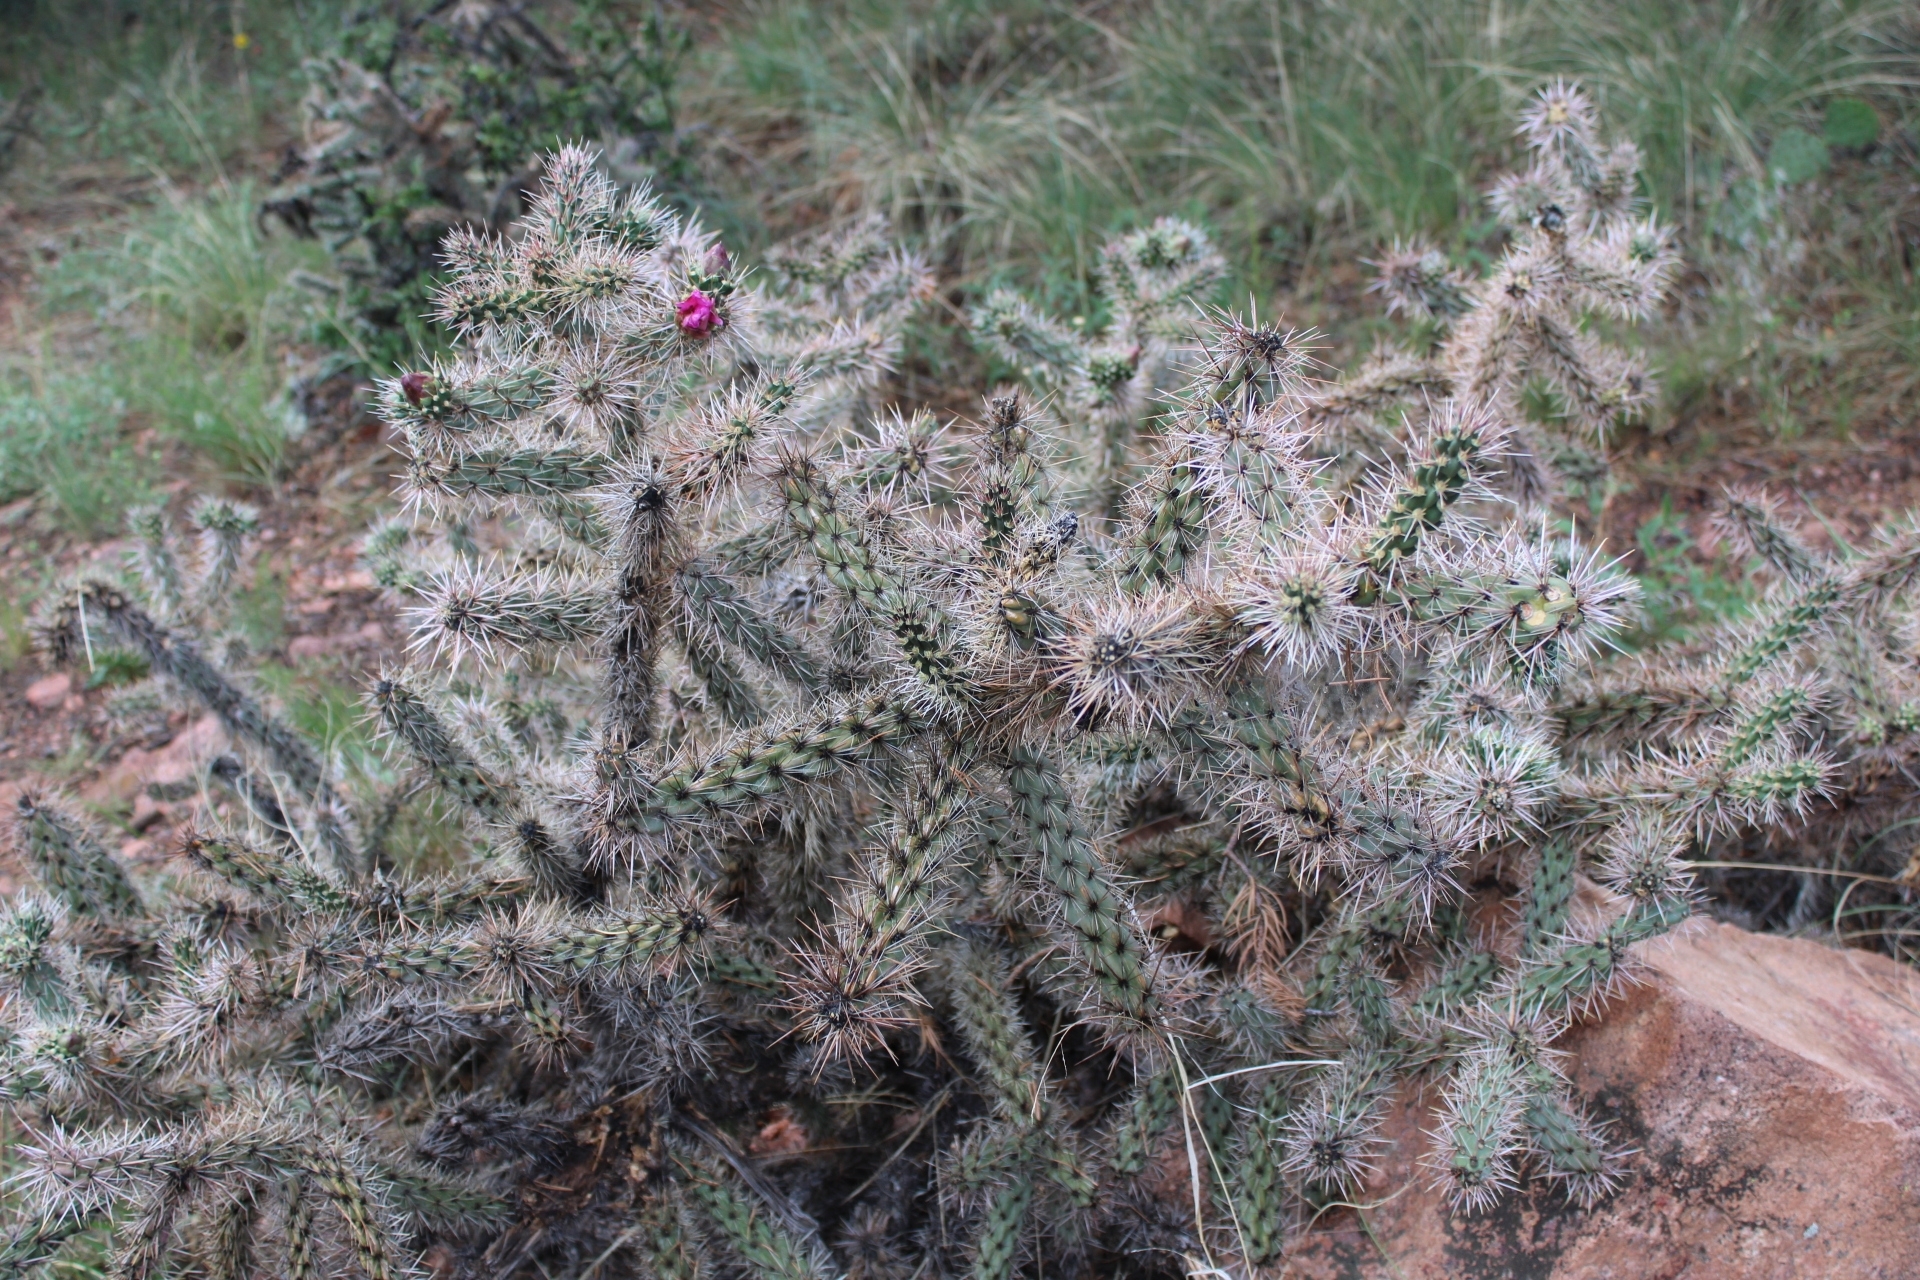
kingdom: Plantae
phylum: Tracheophyta
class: Magnoliopsida
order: Caryophyllales
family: Cactaceae
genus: Cylindropuntia
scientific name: Cylindropuntia imbricata
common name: Candelabrum cactus
